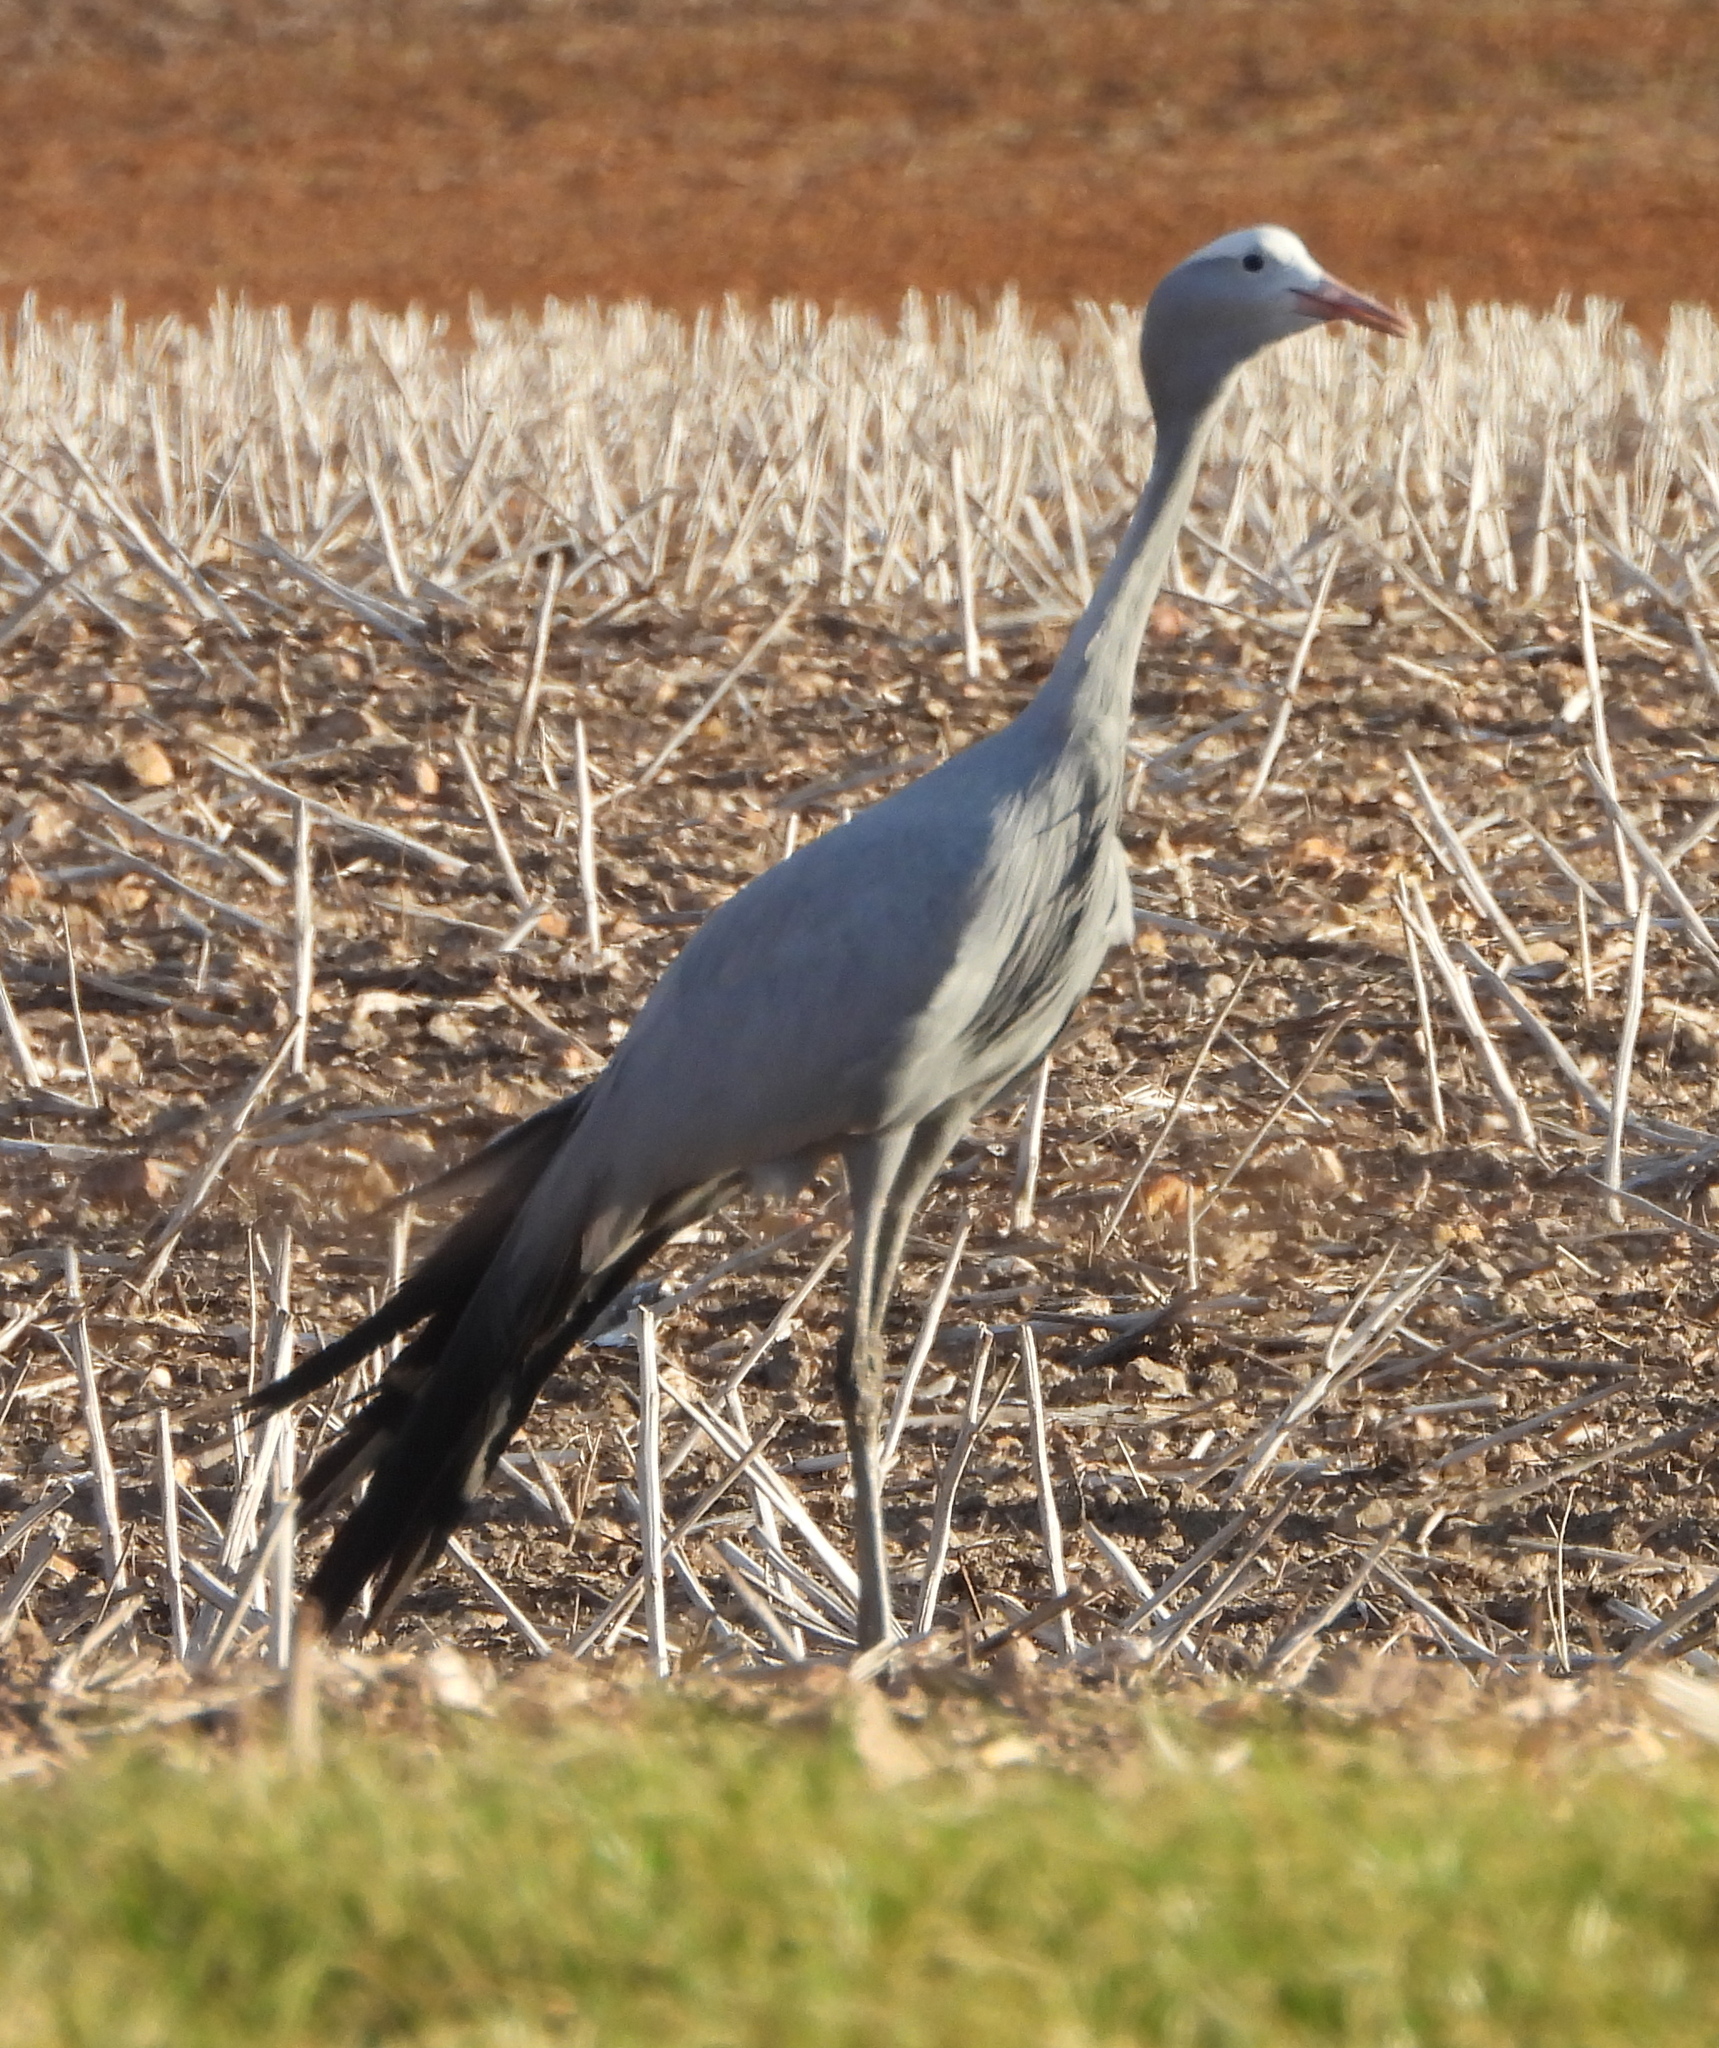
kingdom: Animalia
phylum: Chordata
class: Aves
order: Gruiformes
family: Gruidae
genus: Anthropoides
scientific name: Anthropoides paradiseus
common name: Blue crane
